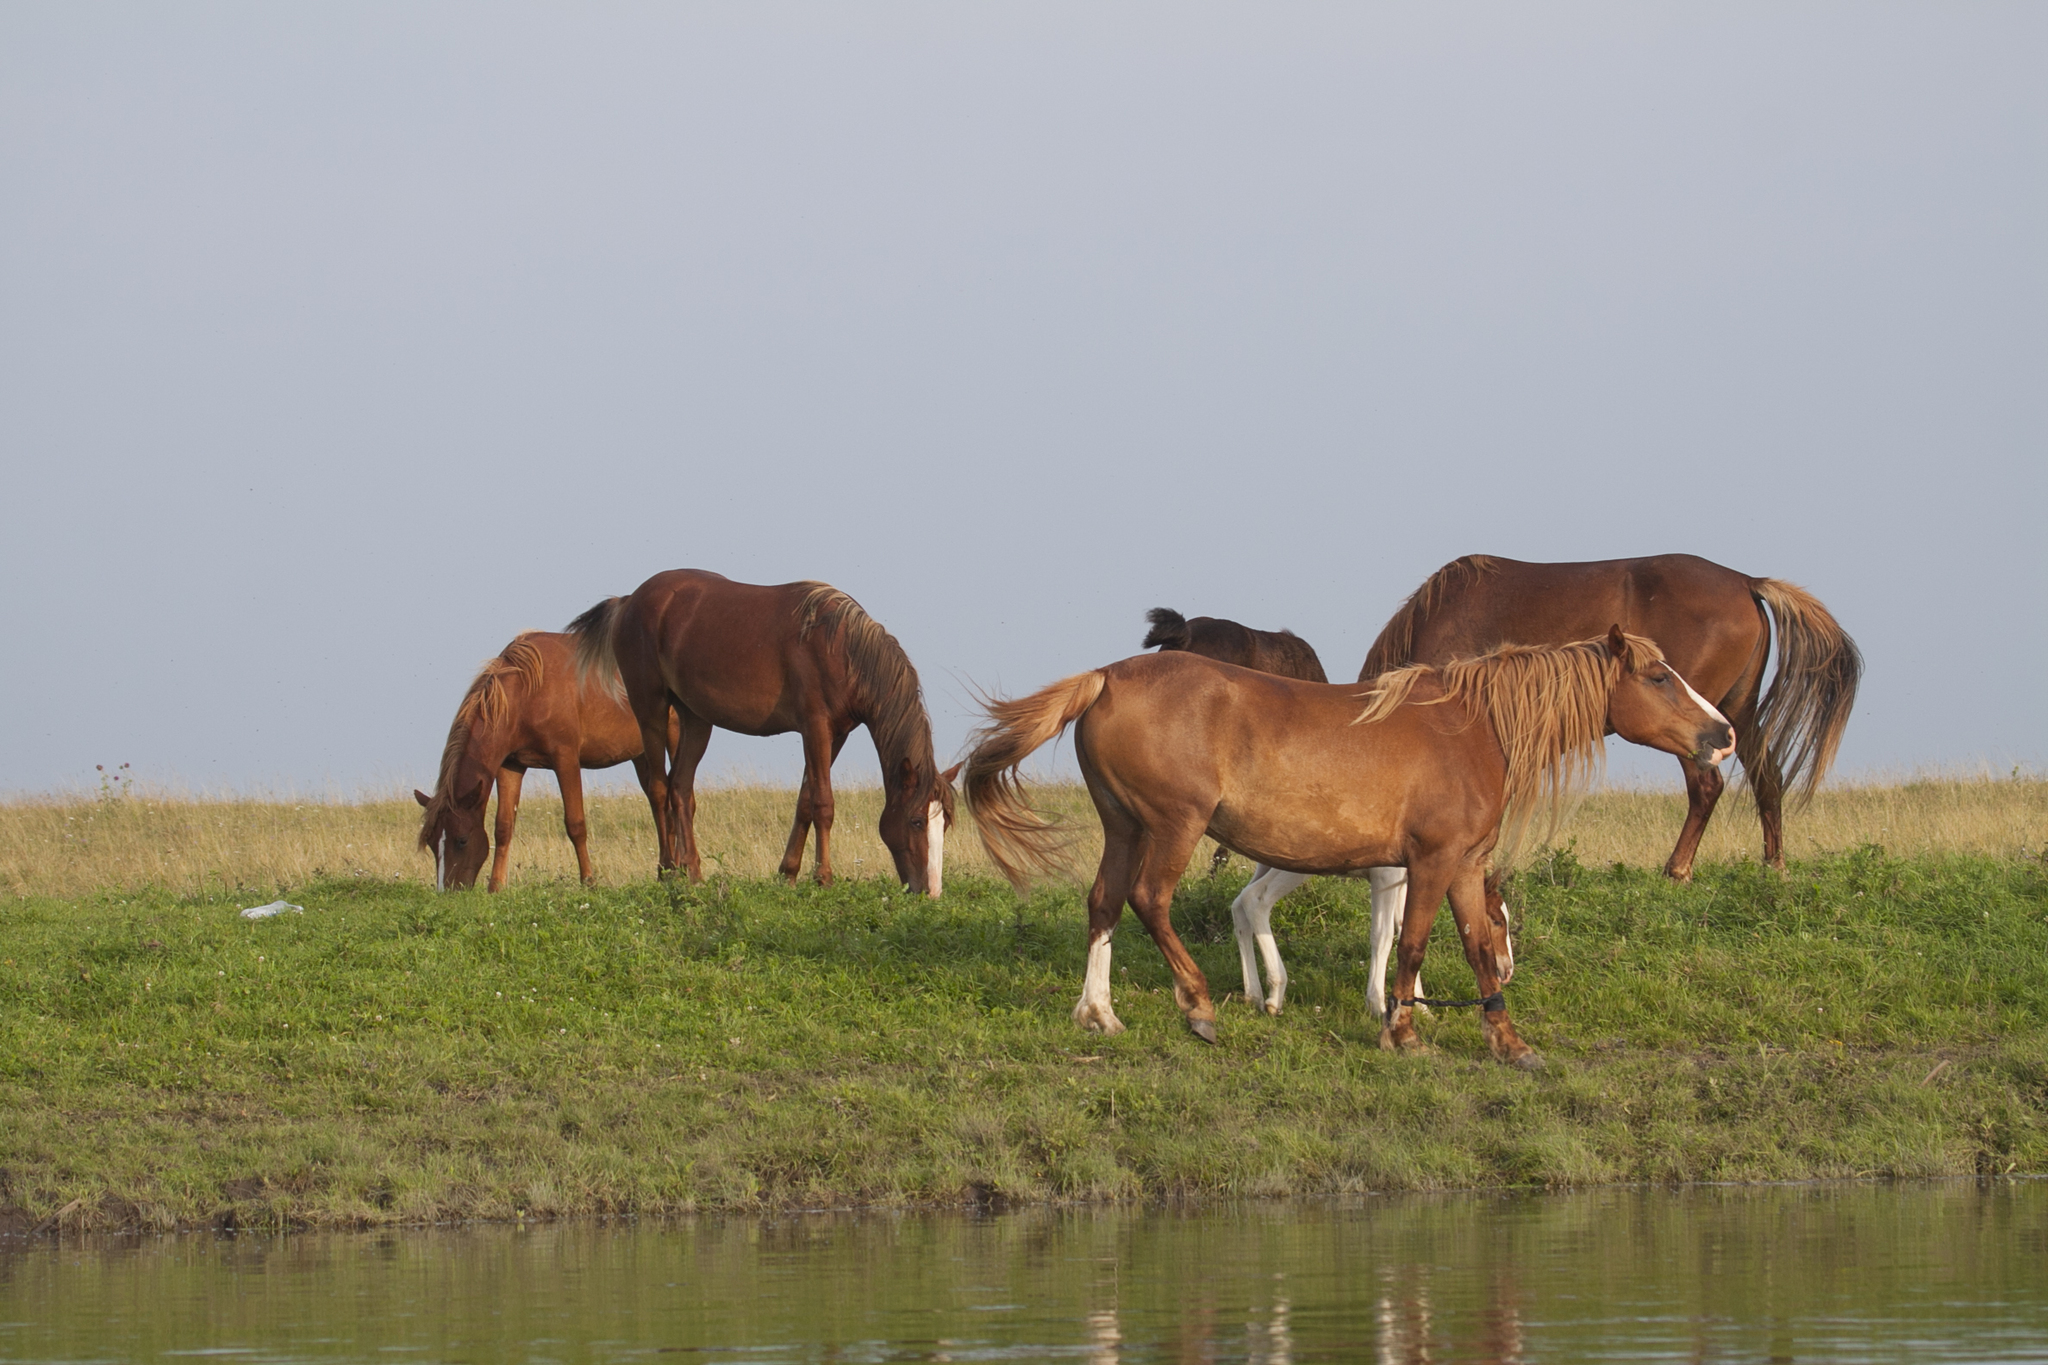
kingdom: Animalia
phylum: Chordata
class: Mammalia
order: Perissodactyla
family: Equidae
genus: Equus
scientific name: Equus caballus
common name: Horse
